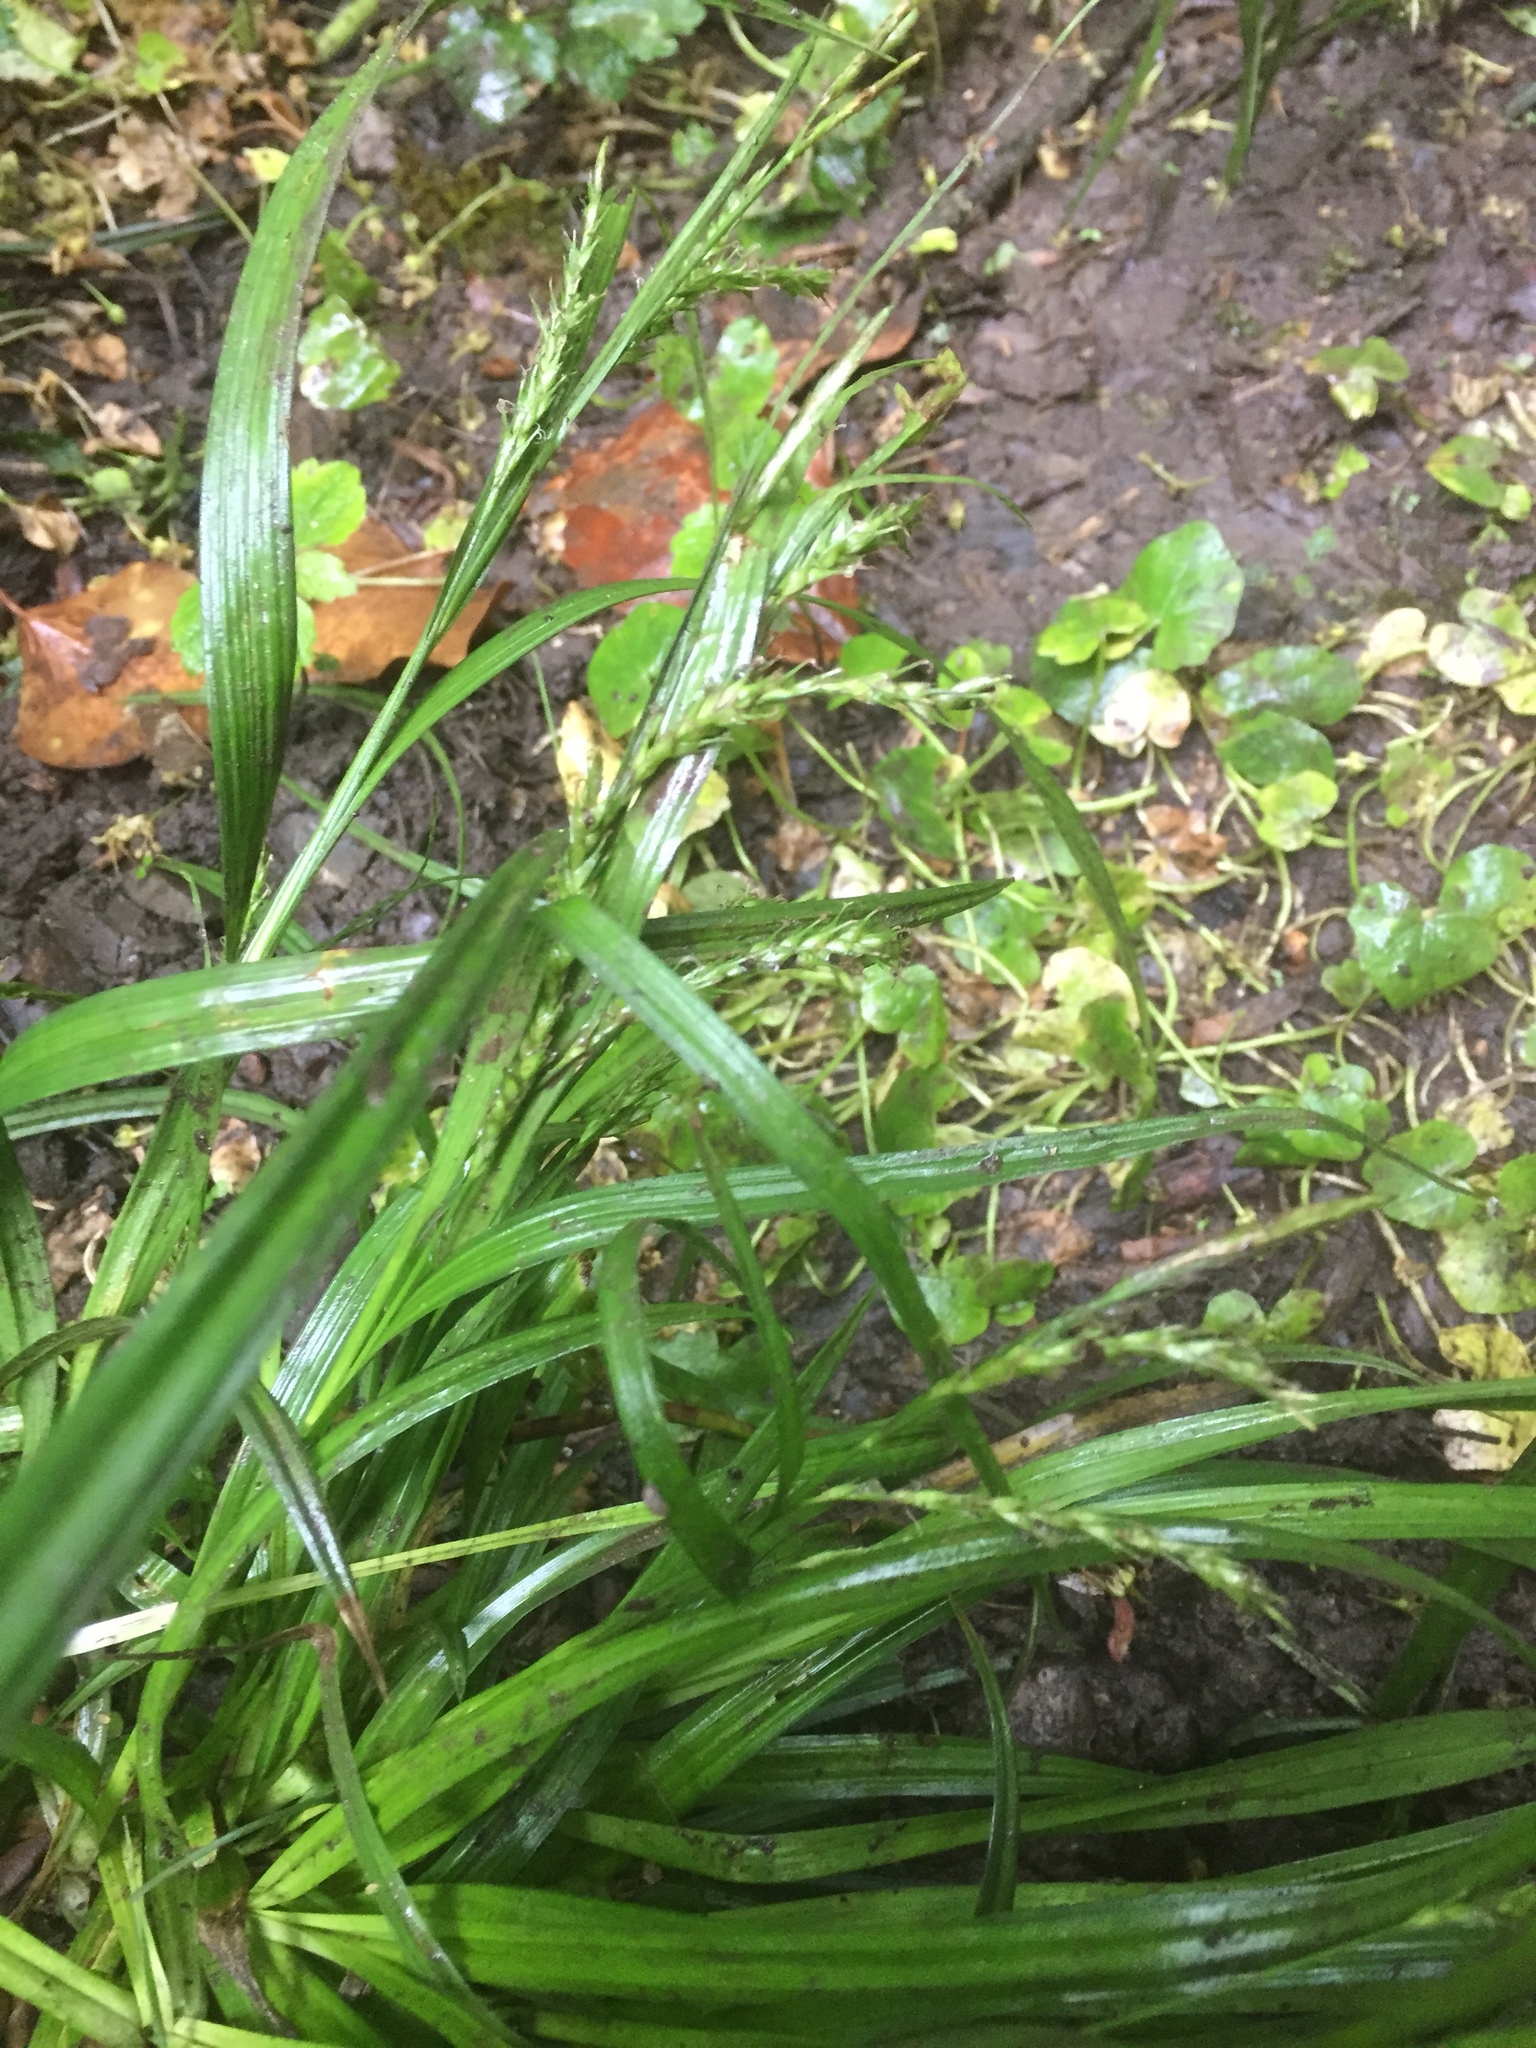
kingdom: Plantae
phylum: Tracheophyta
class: Liliopsida
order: Poales
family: Poaceae
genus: Melica
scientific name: Melica uniflora
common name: Wood melick
